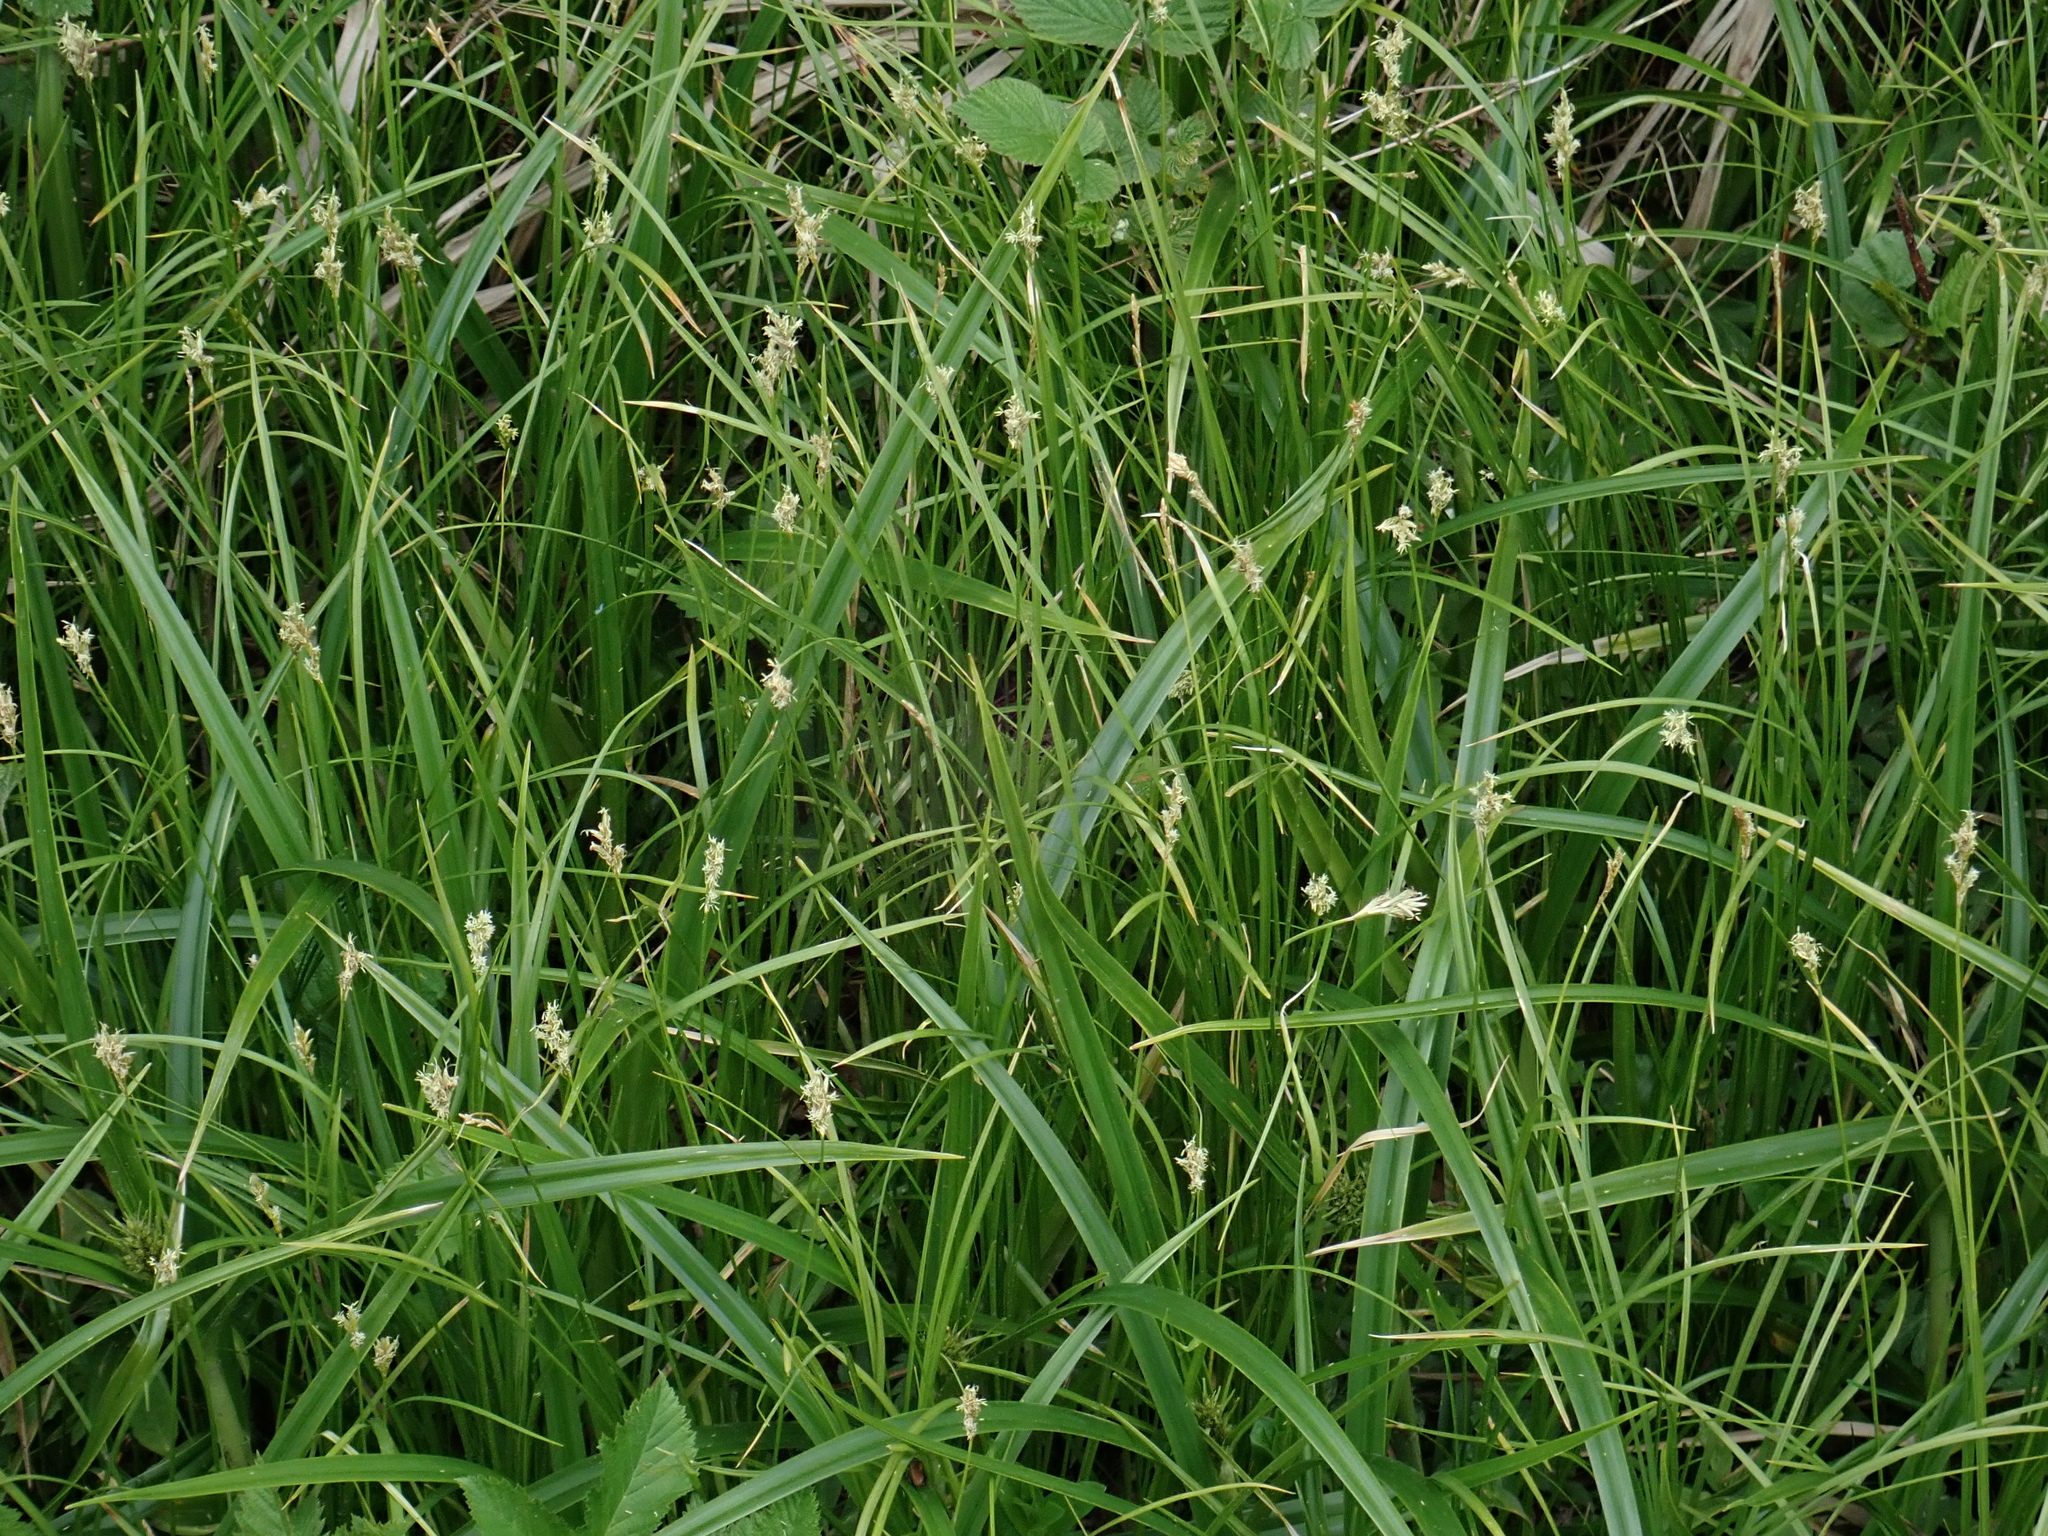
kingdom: Plantae
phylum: Tracheophyta
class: Liliopsida
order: Poales
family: Cyperaceae
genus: Carex
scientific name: Carex brizoides
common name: Quaking-grass sedge
